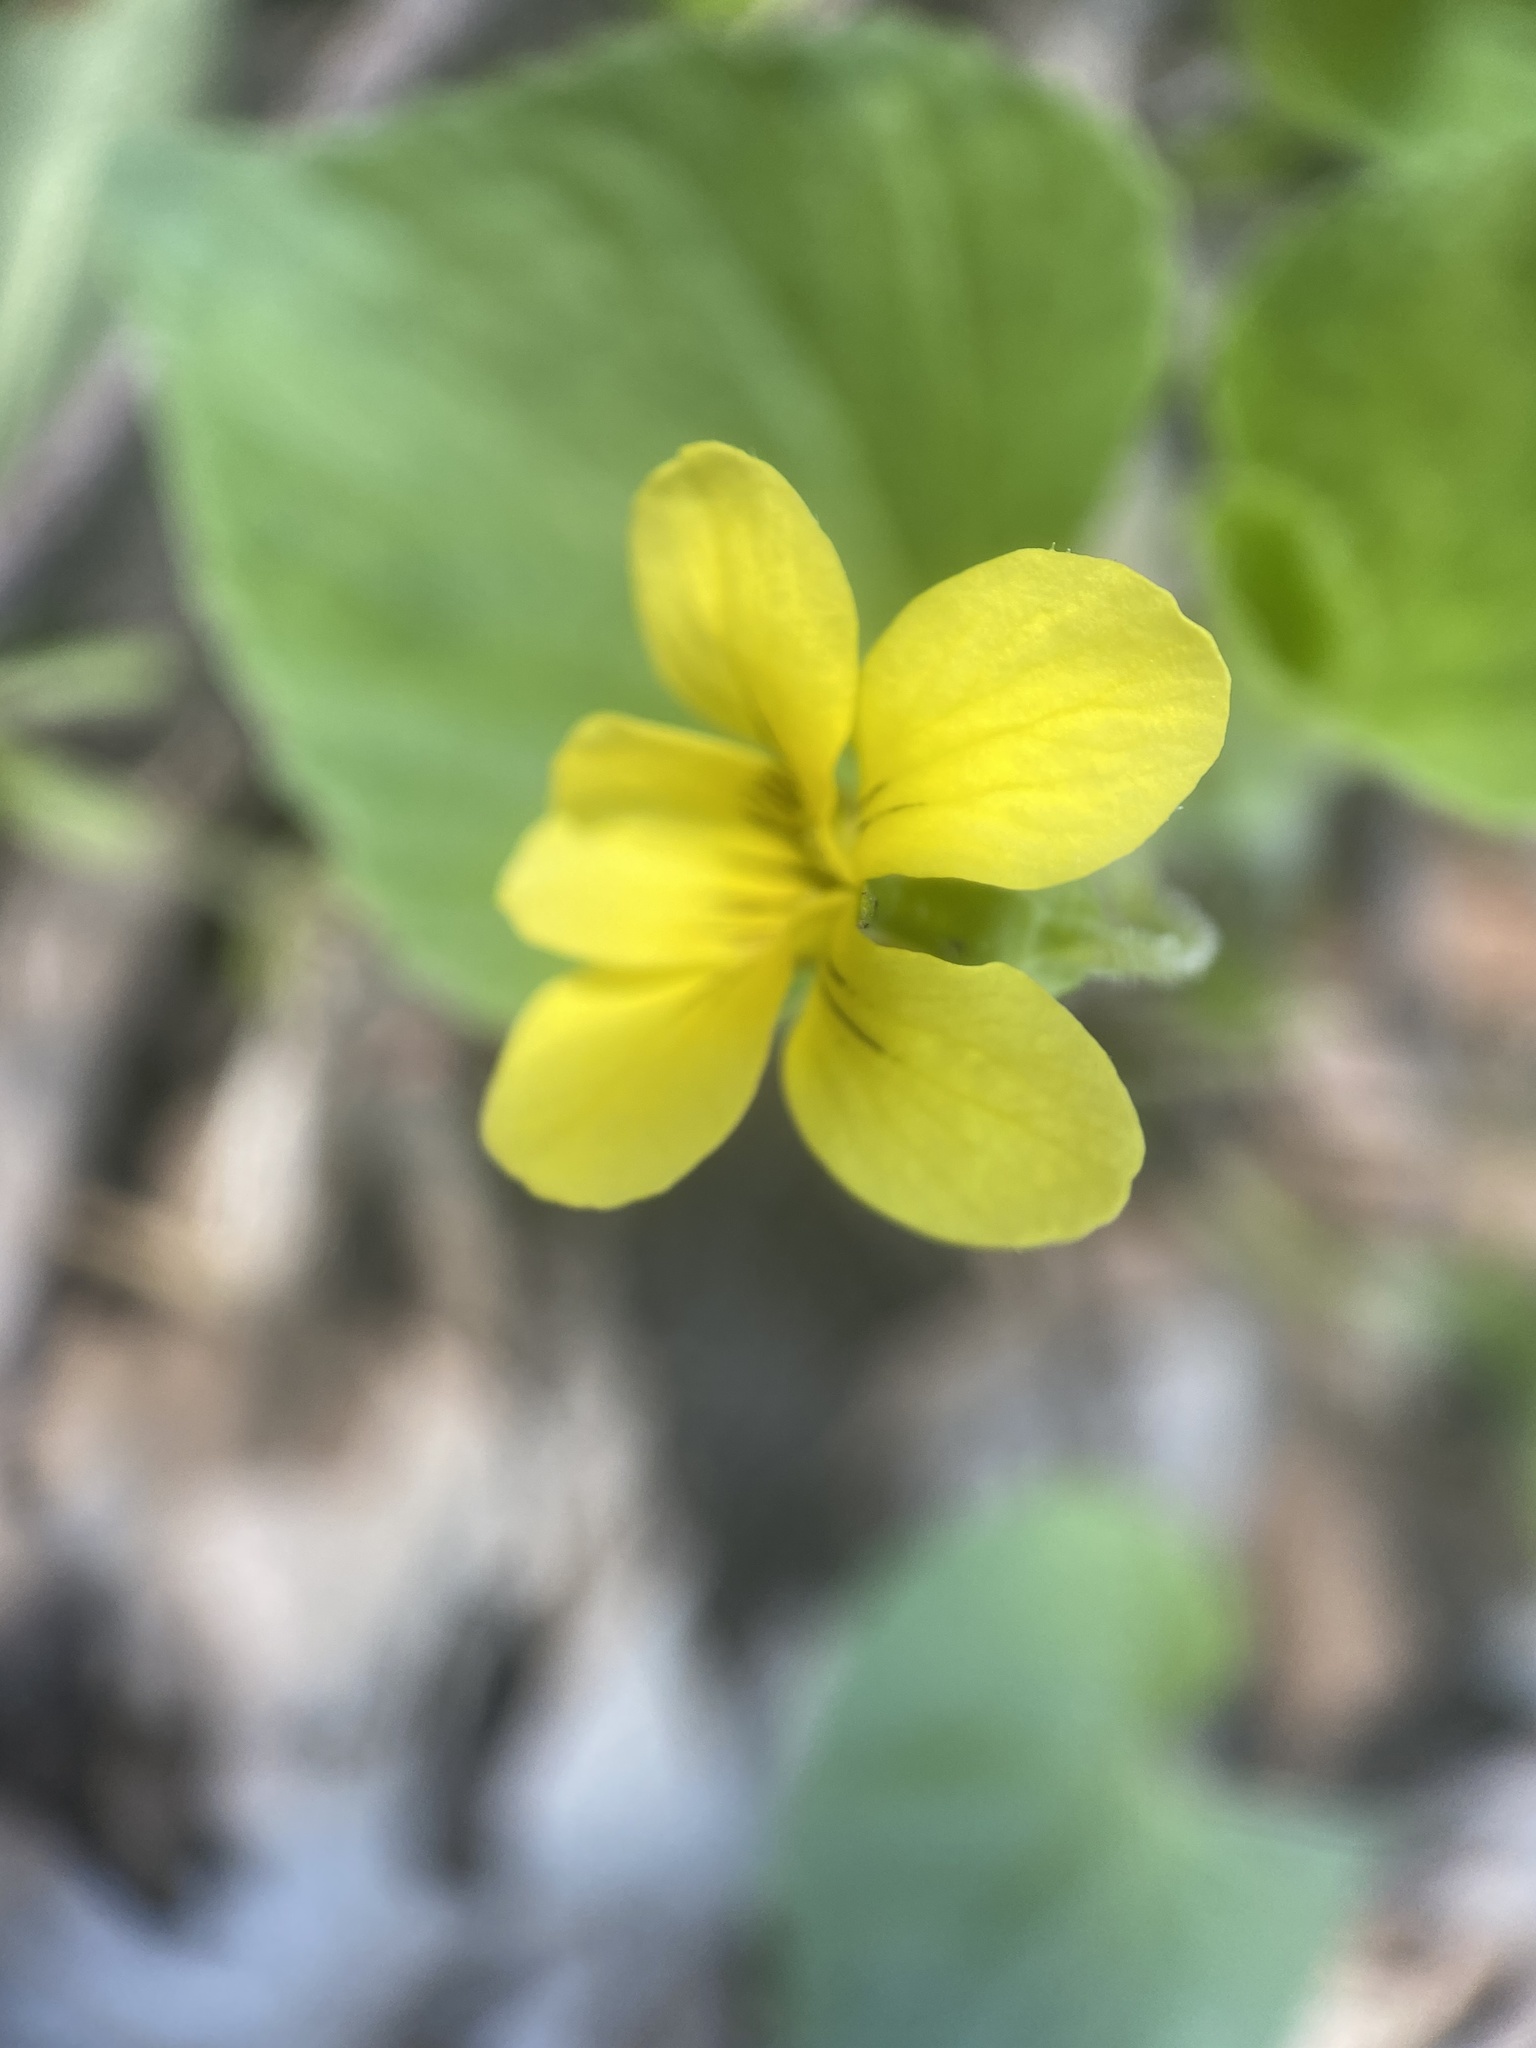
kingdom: Plantae
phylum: Tracheophyta
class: Magnoliopsida
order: Malpighiales
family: Violaceae
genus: Viola
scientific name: Viola eriocarpa
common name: Smooth yellow violet
